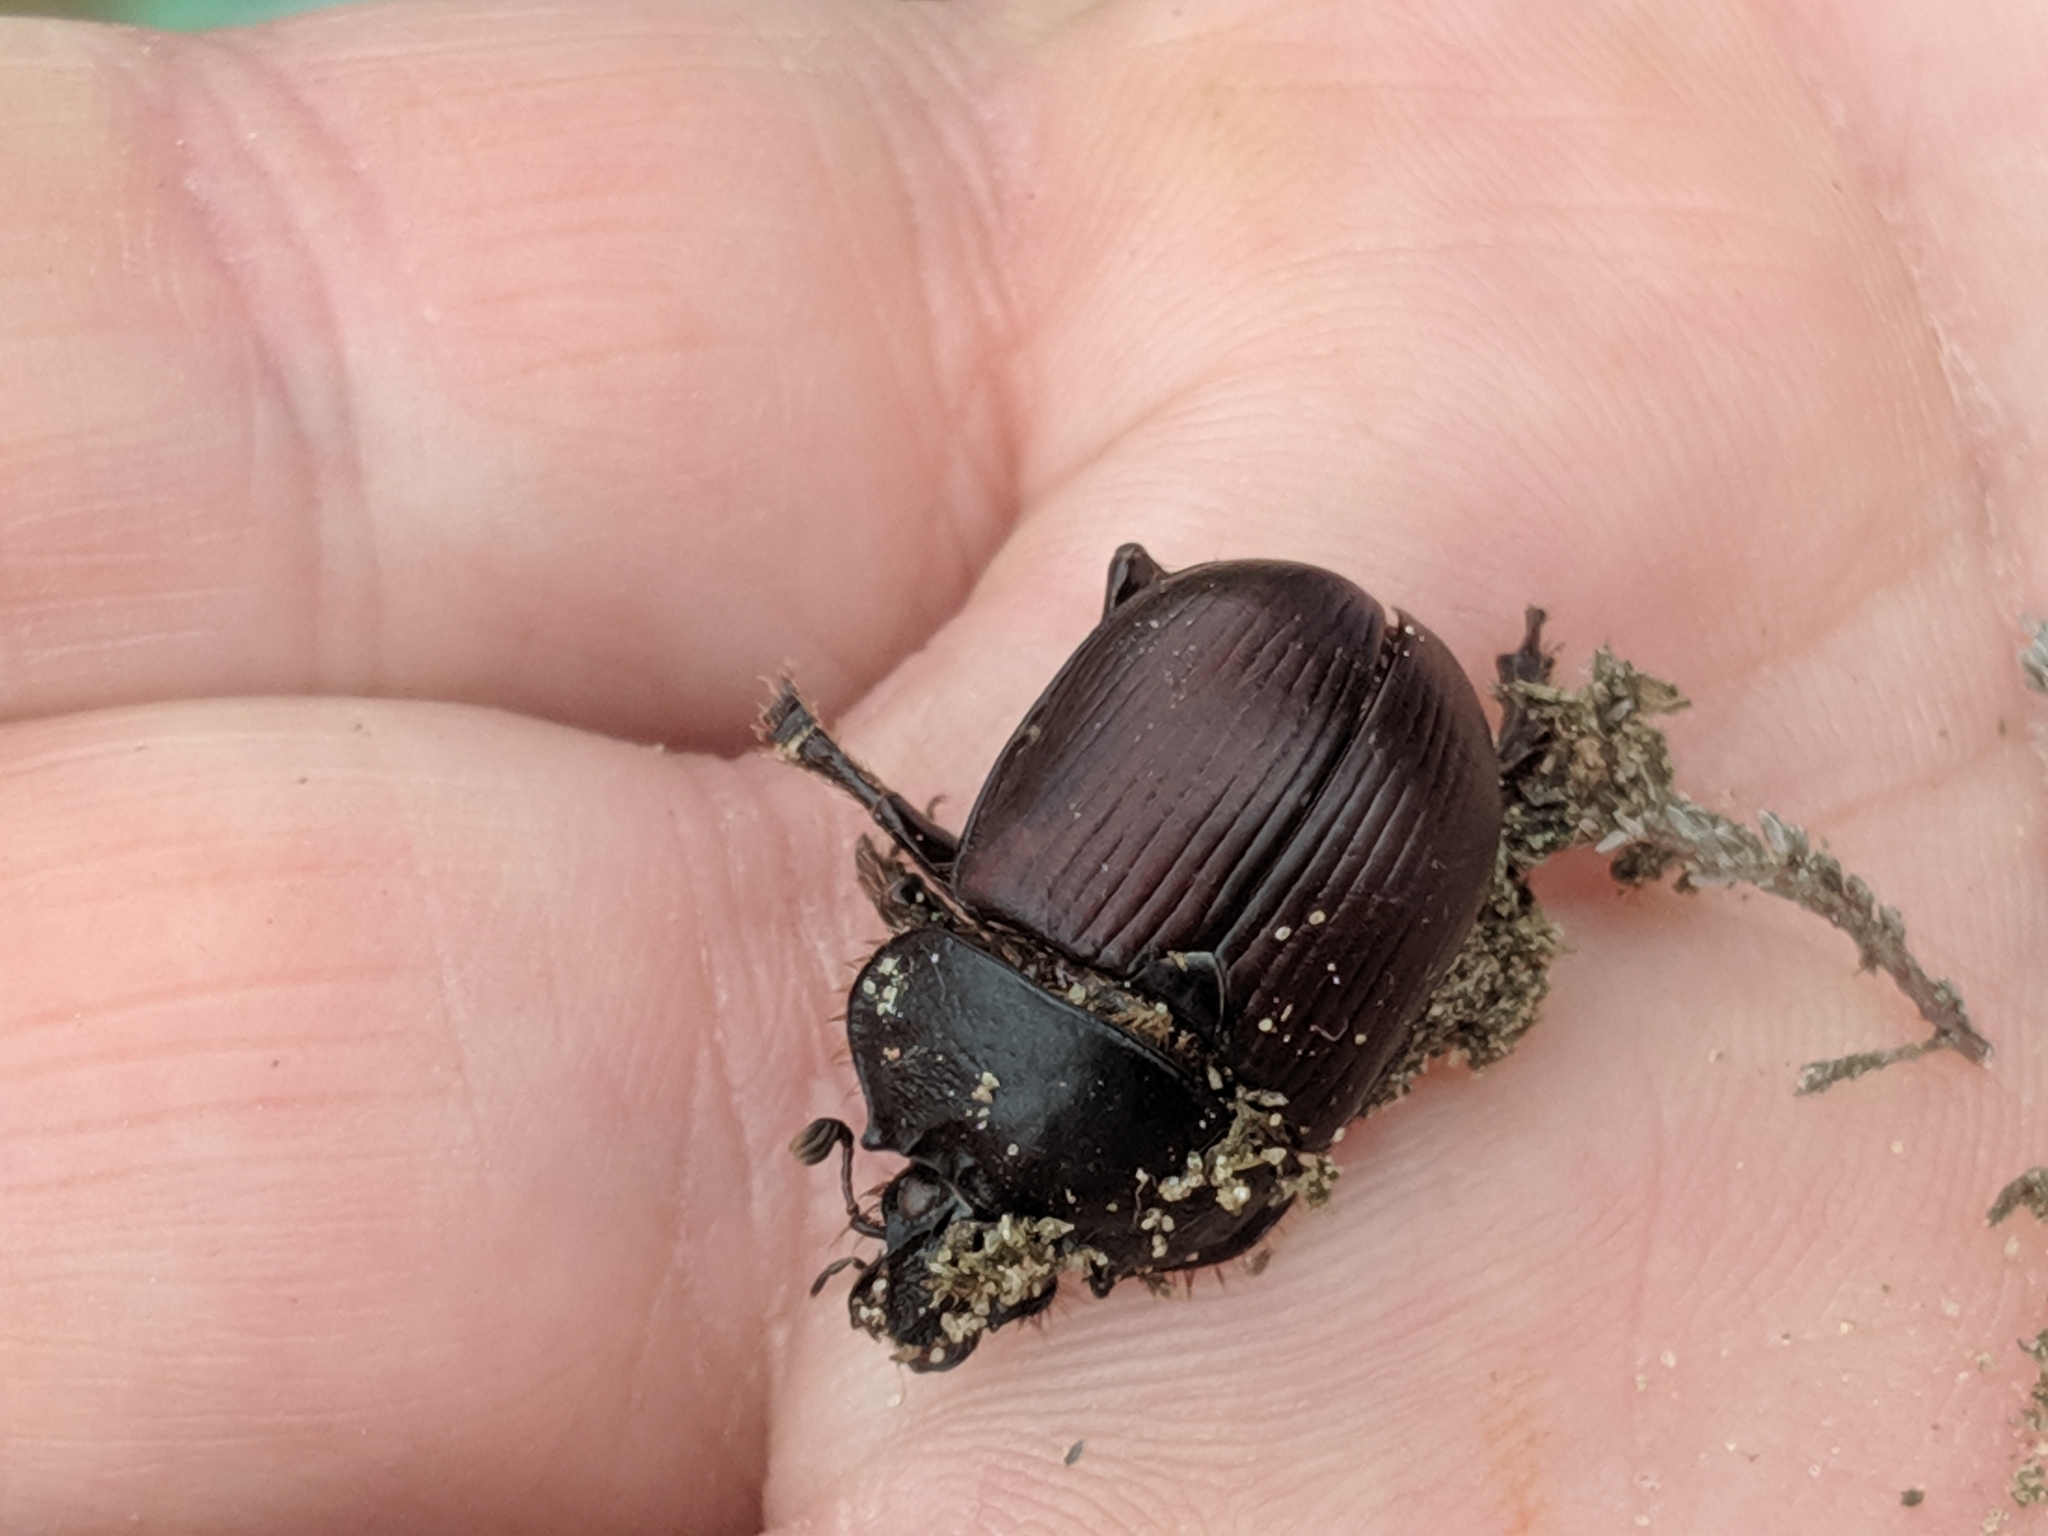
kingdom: Animalia
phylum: Arthropoda
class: Insecta
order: Coleoptera
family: Geotrupidae
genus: Typhaeus
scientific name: Typhaeus typhoeus
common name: Minotaur beetle
